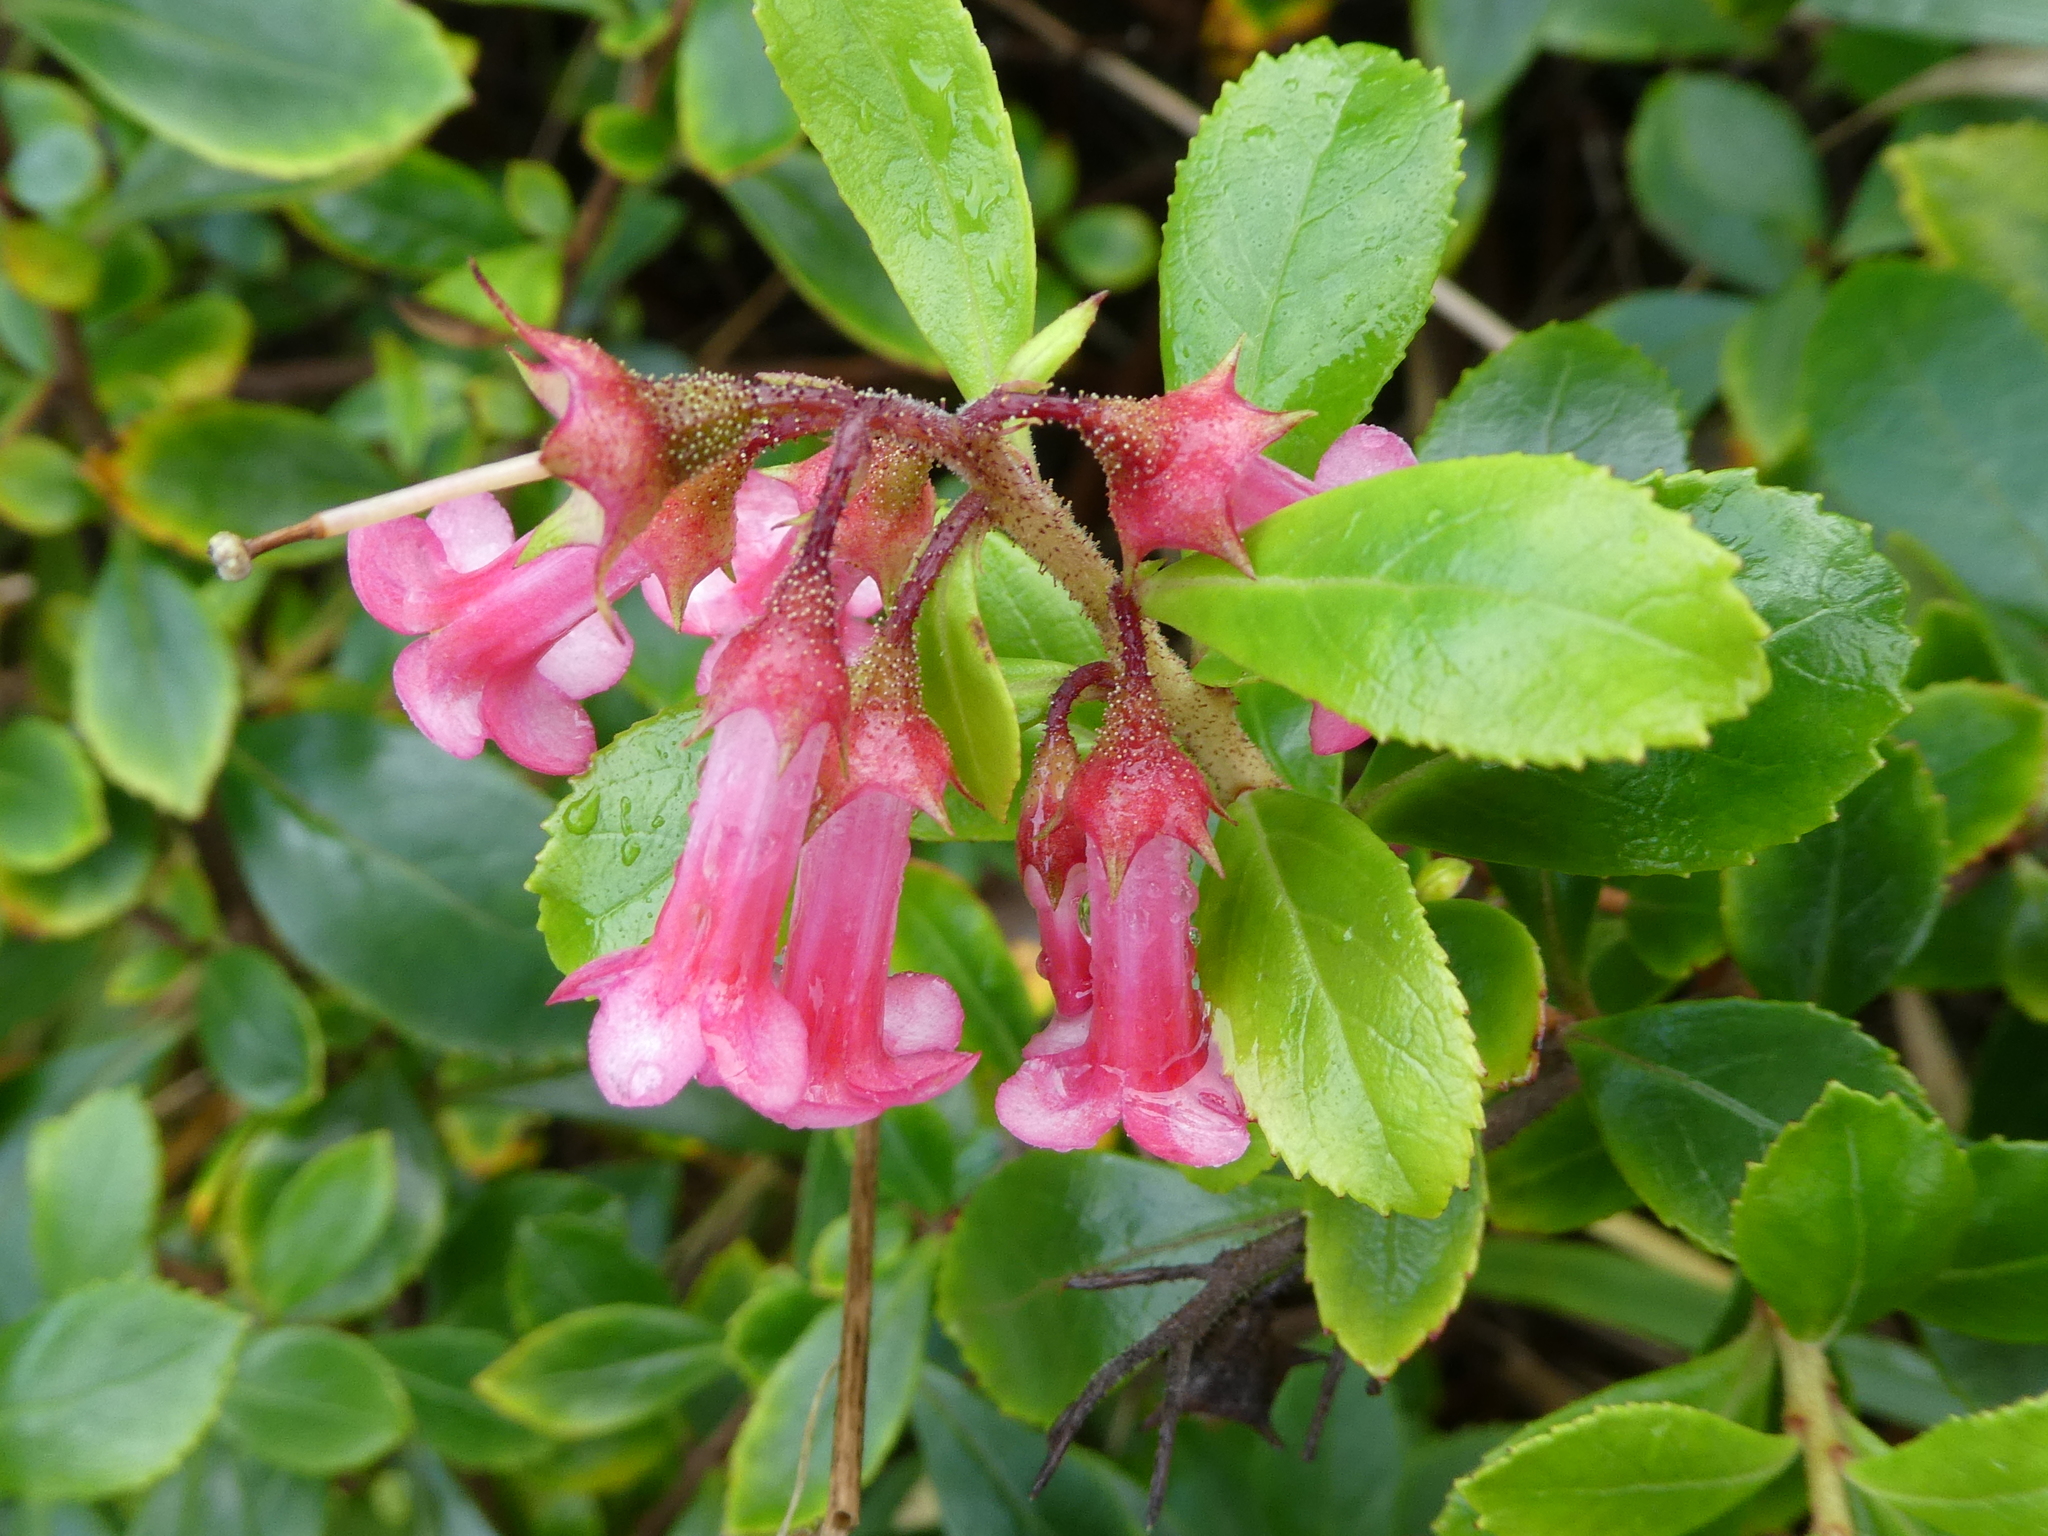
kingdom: Plantae
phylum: Tracheophyta
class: Magnoliopsida
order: Escalloniales
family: Escalloniaceae
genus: Escallonia
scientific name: Escallonia rubra
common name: Redclaws
